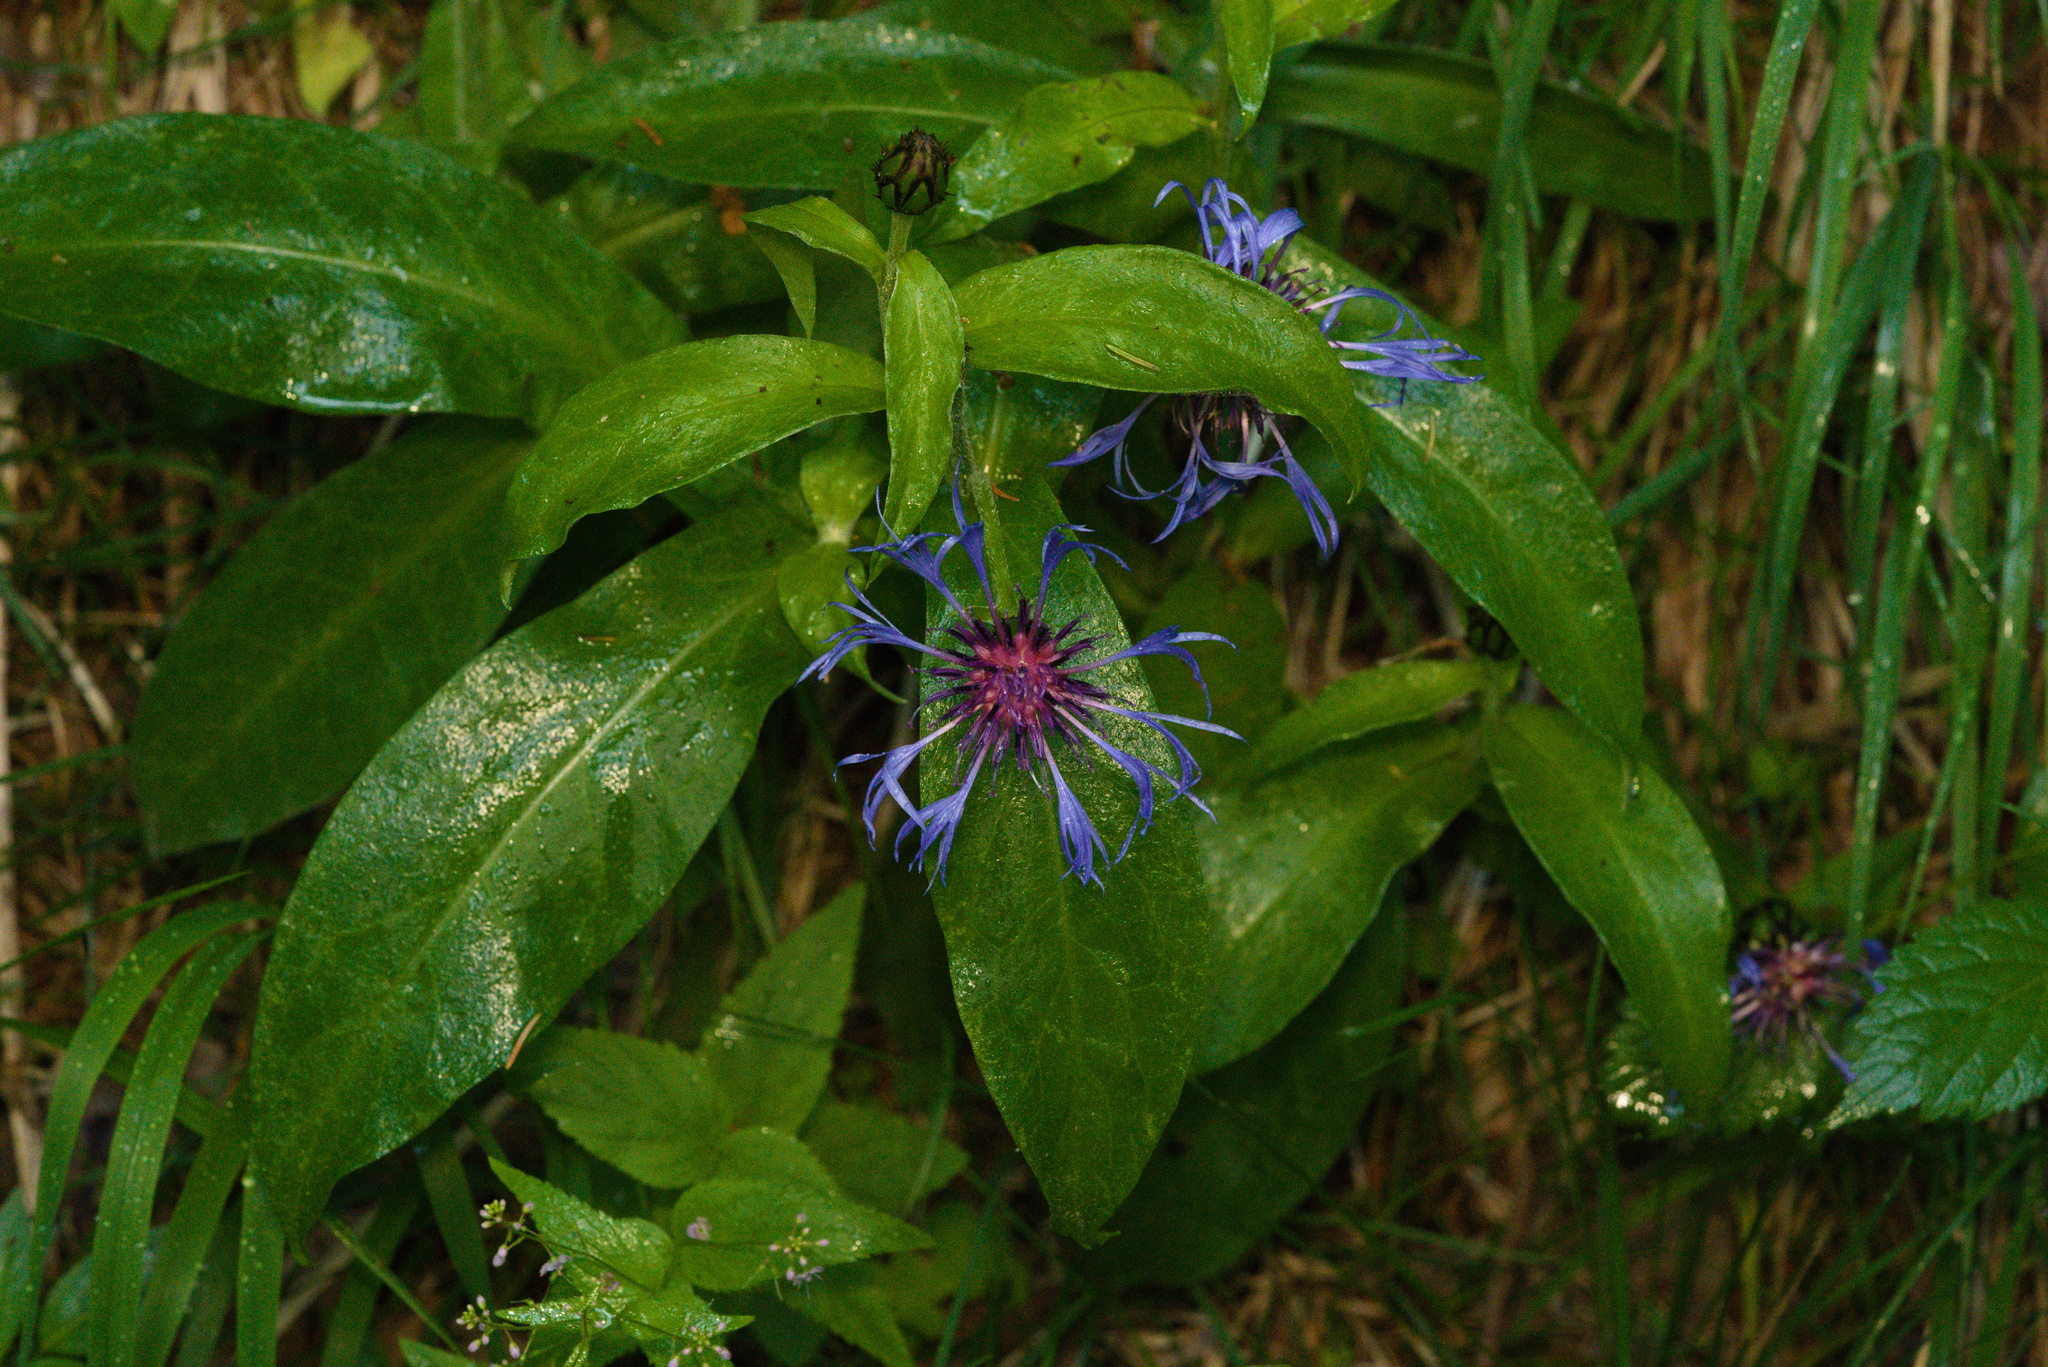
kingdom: Plantae
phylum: Tracheophyta
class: Magnoliopsida
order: Asterales
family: Asteraceae
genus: Centaurea
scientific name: Centaurea montana
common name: Perennial cornflower
